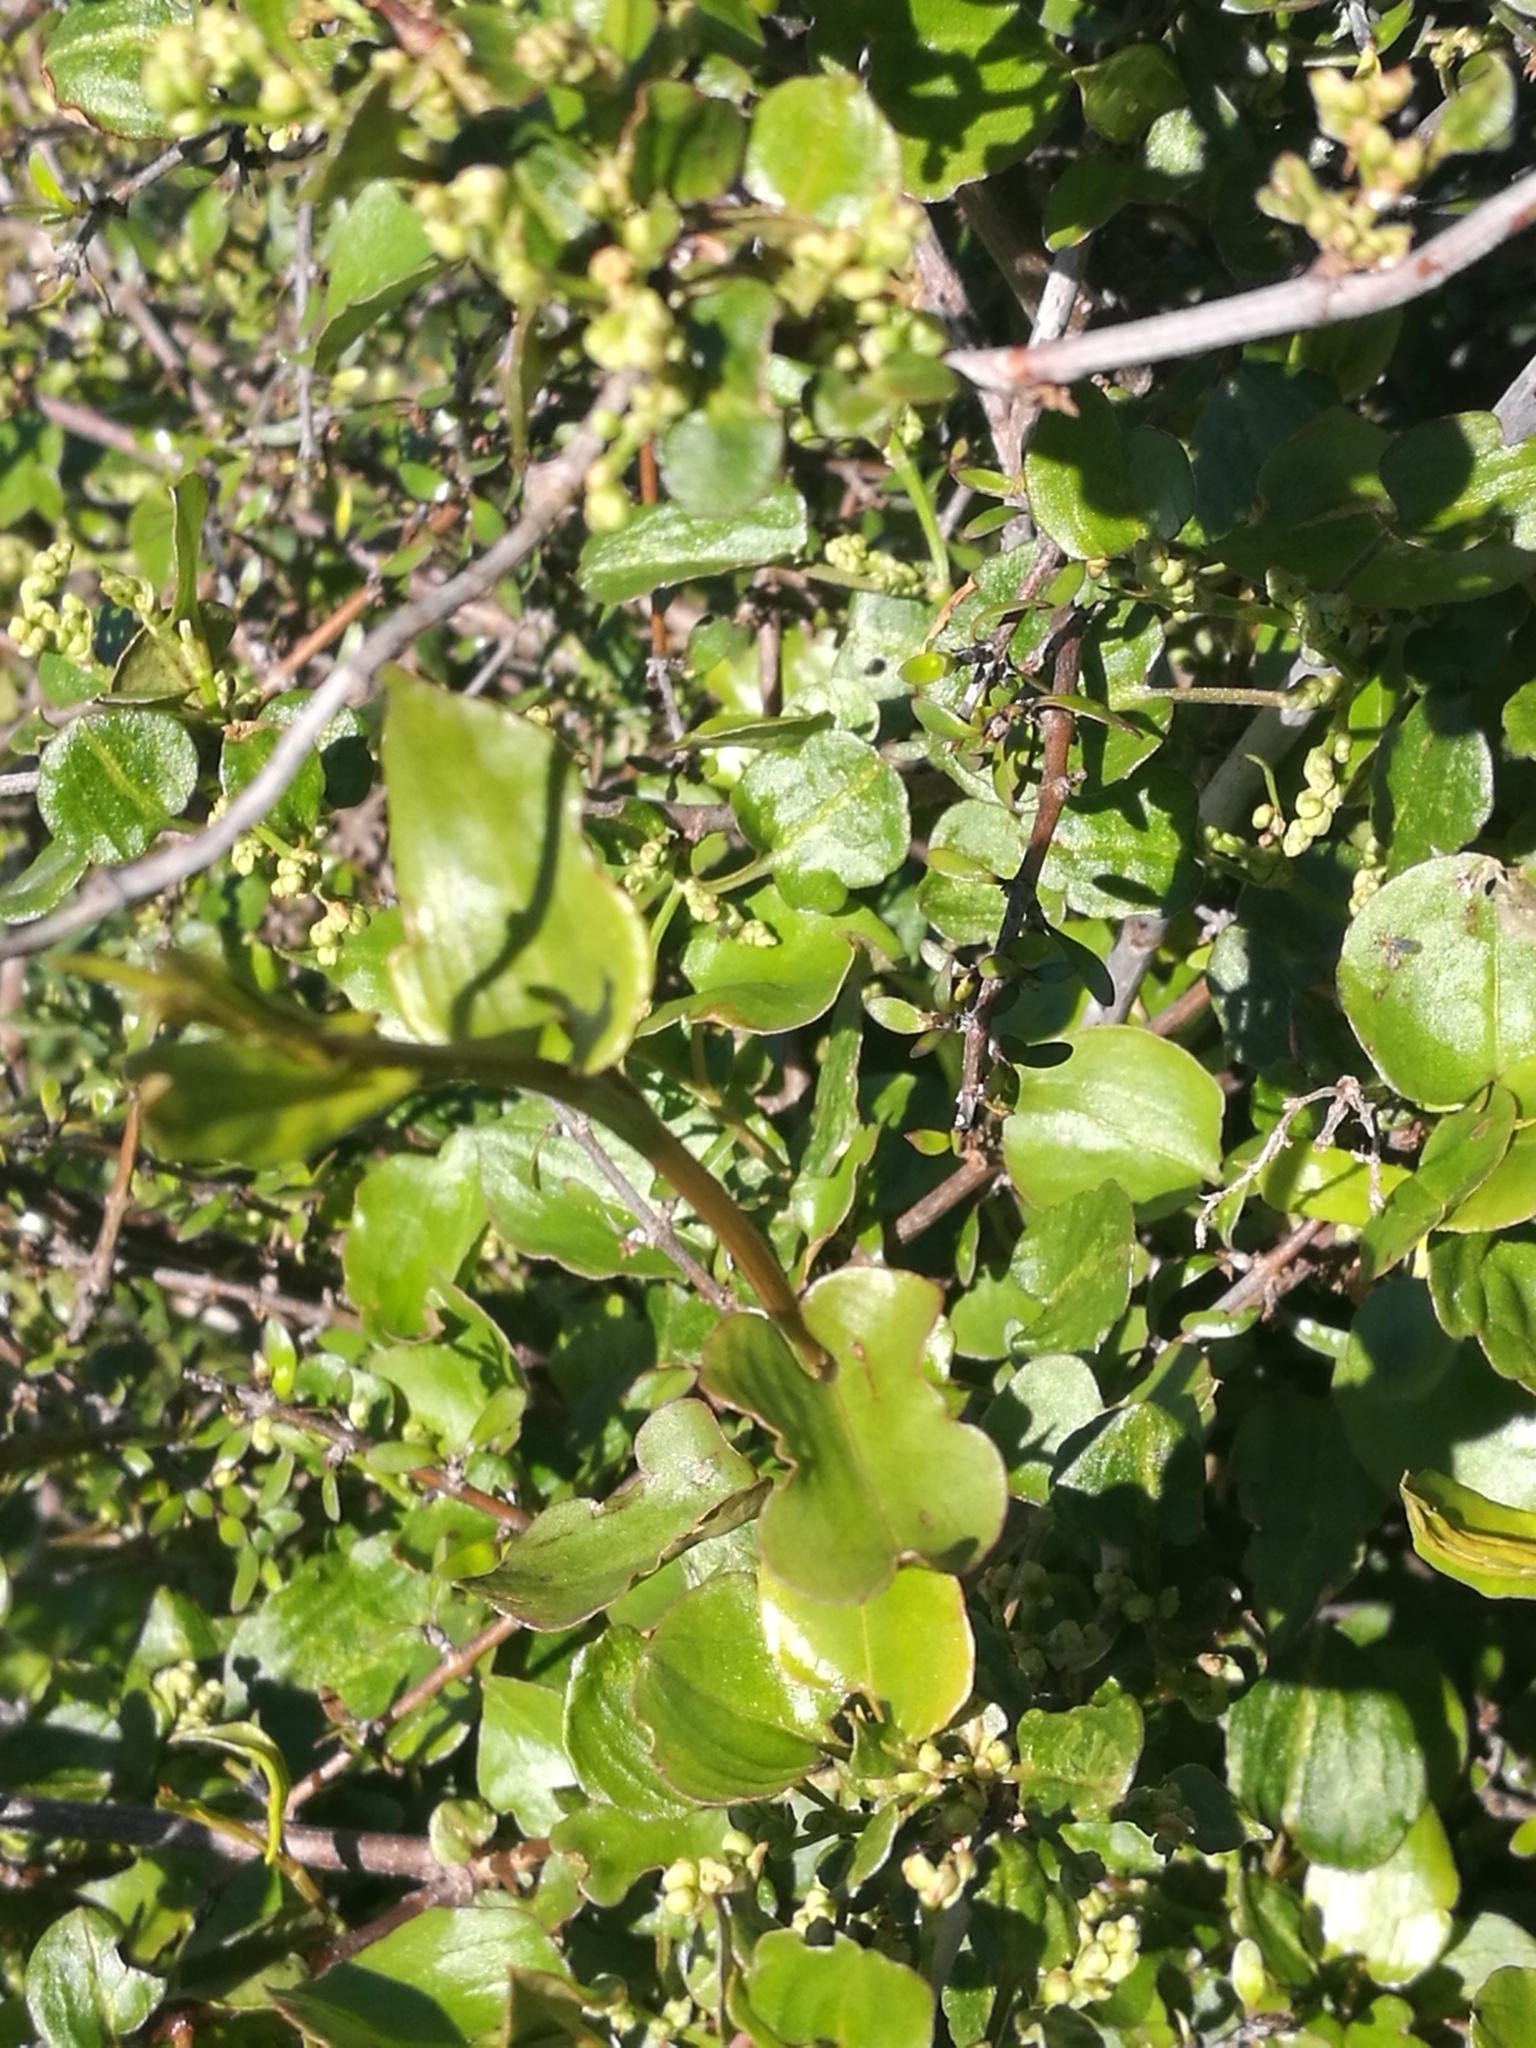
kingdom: Plantae
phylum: Tracheophyta
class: Magnoliopsida
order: Caryophyllales
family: Polygonaceae
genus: Muehlenbeckia
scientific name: Muehlenbeckia australis
